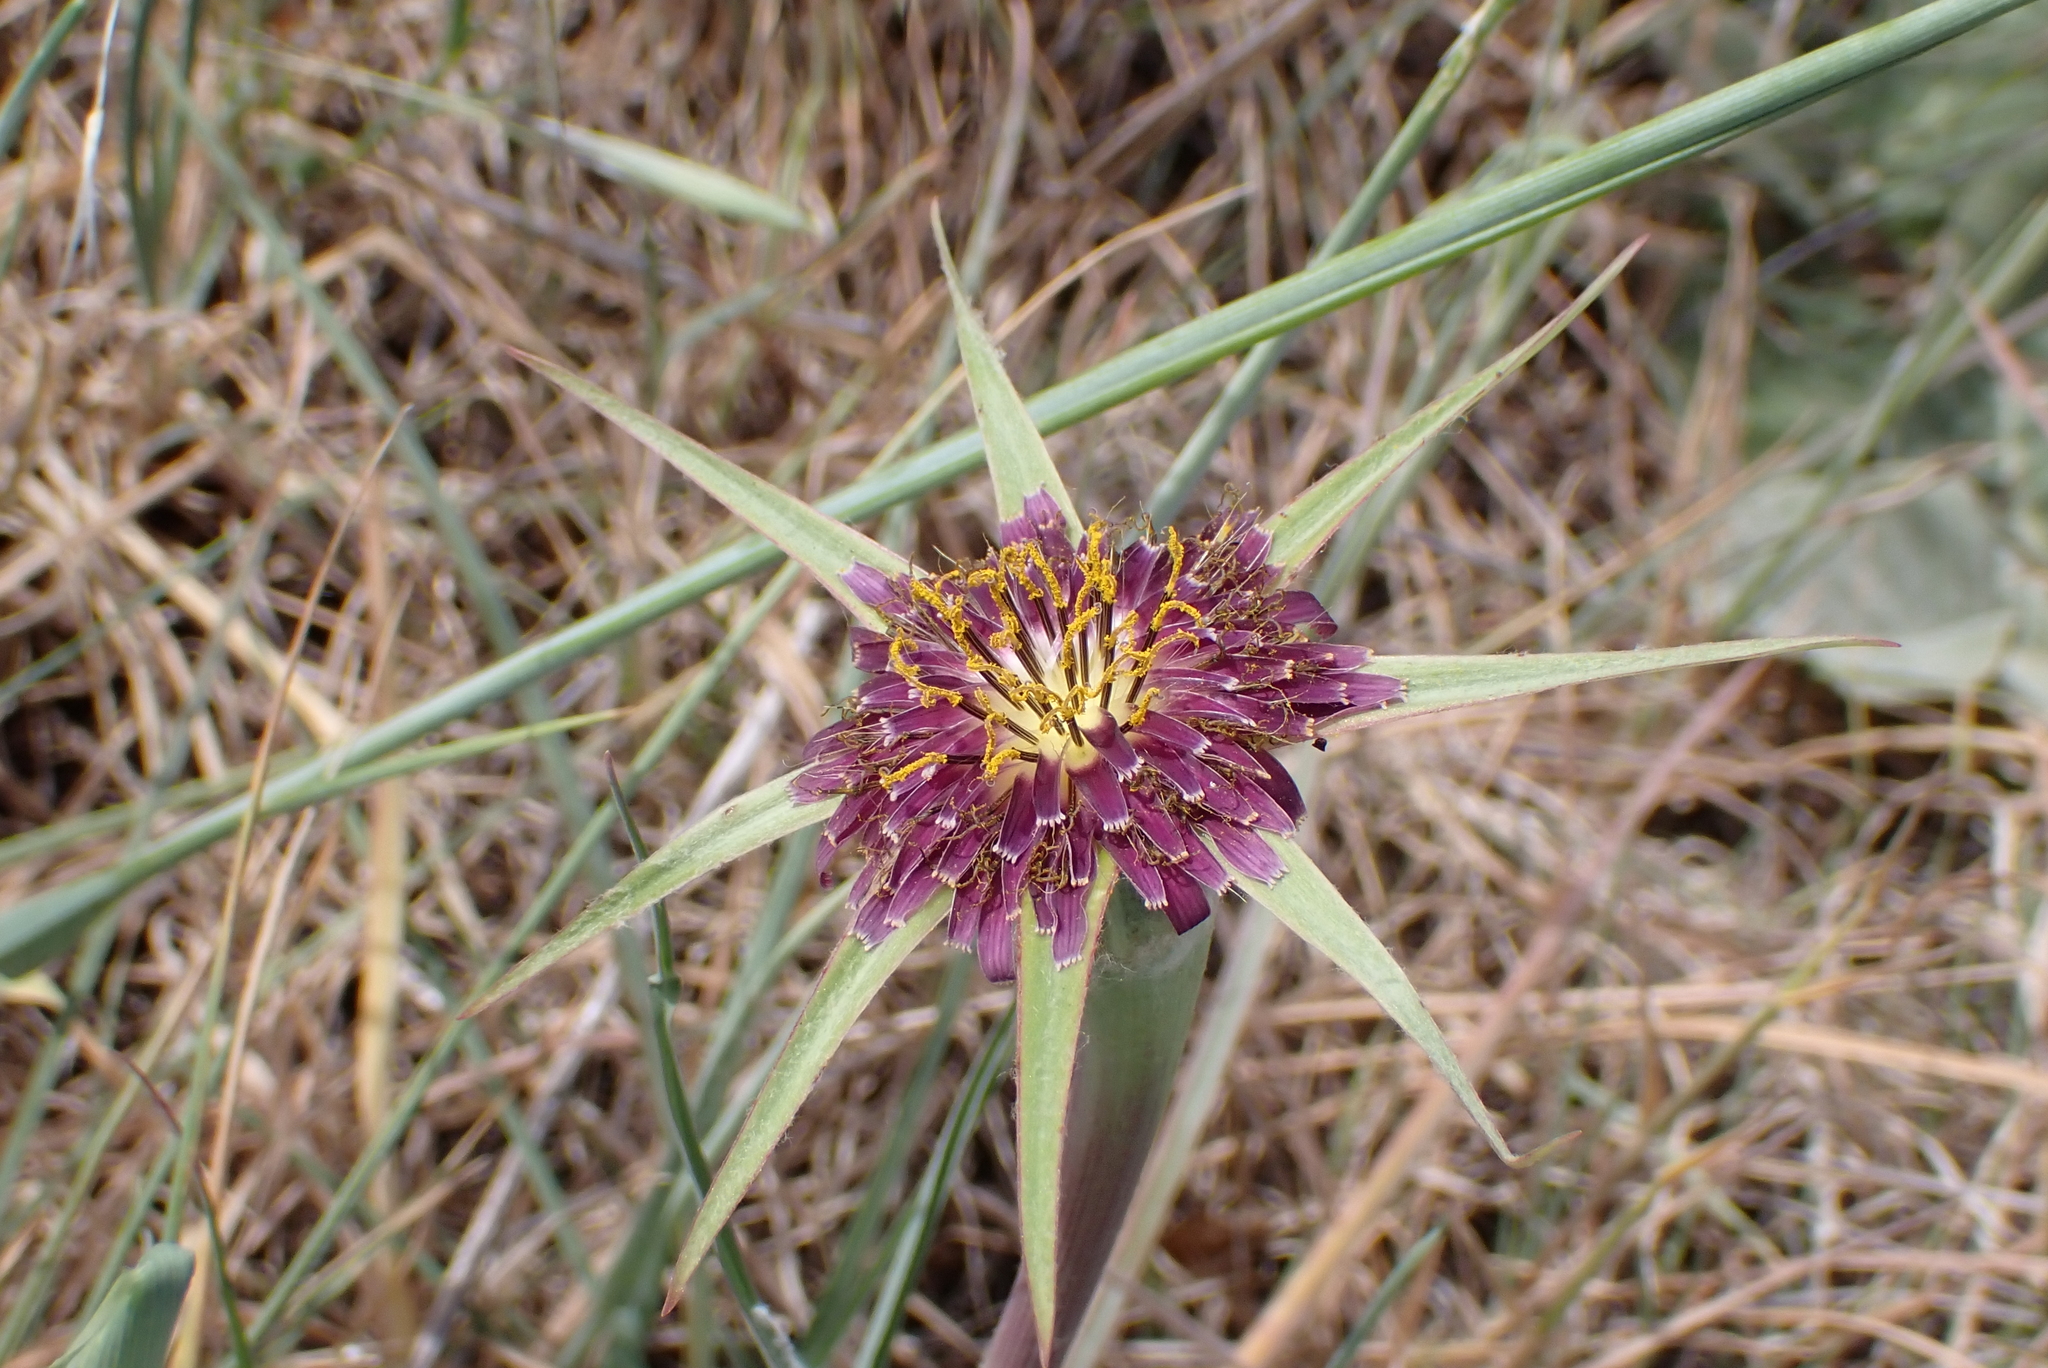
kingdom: Plantae
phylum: Tracheophyta
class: Magnoliopsida
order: Asterales
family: Asteraceae
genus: Tragopogon
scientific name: Tragopogon porrifolius
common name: Salsify
